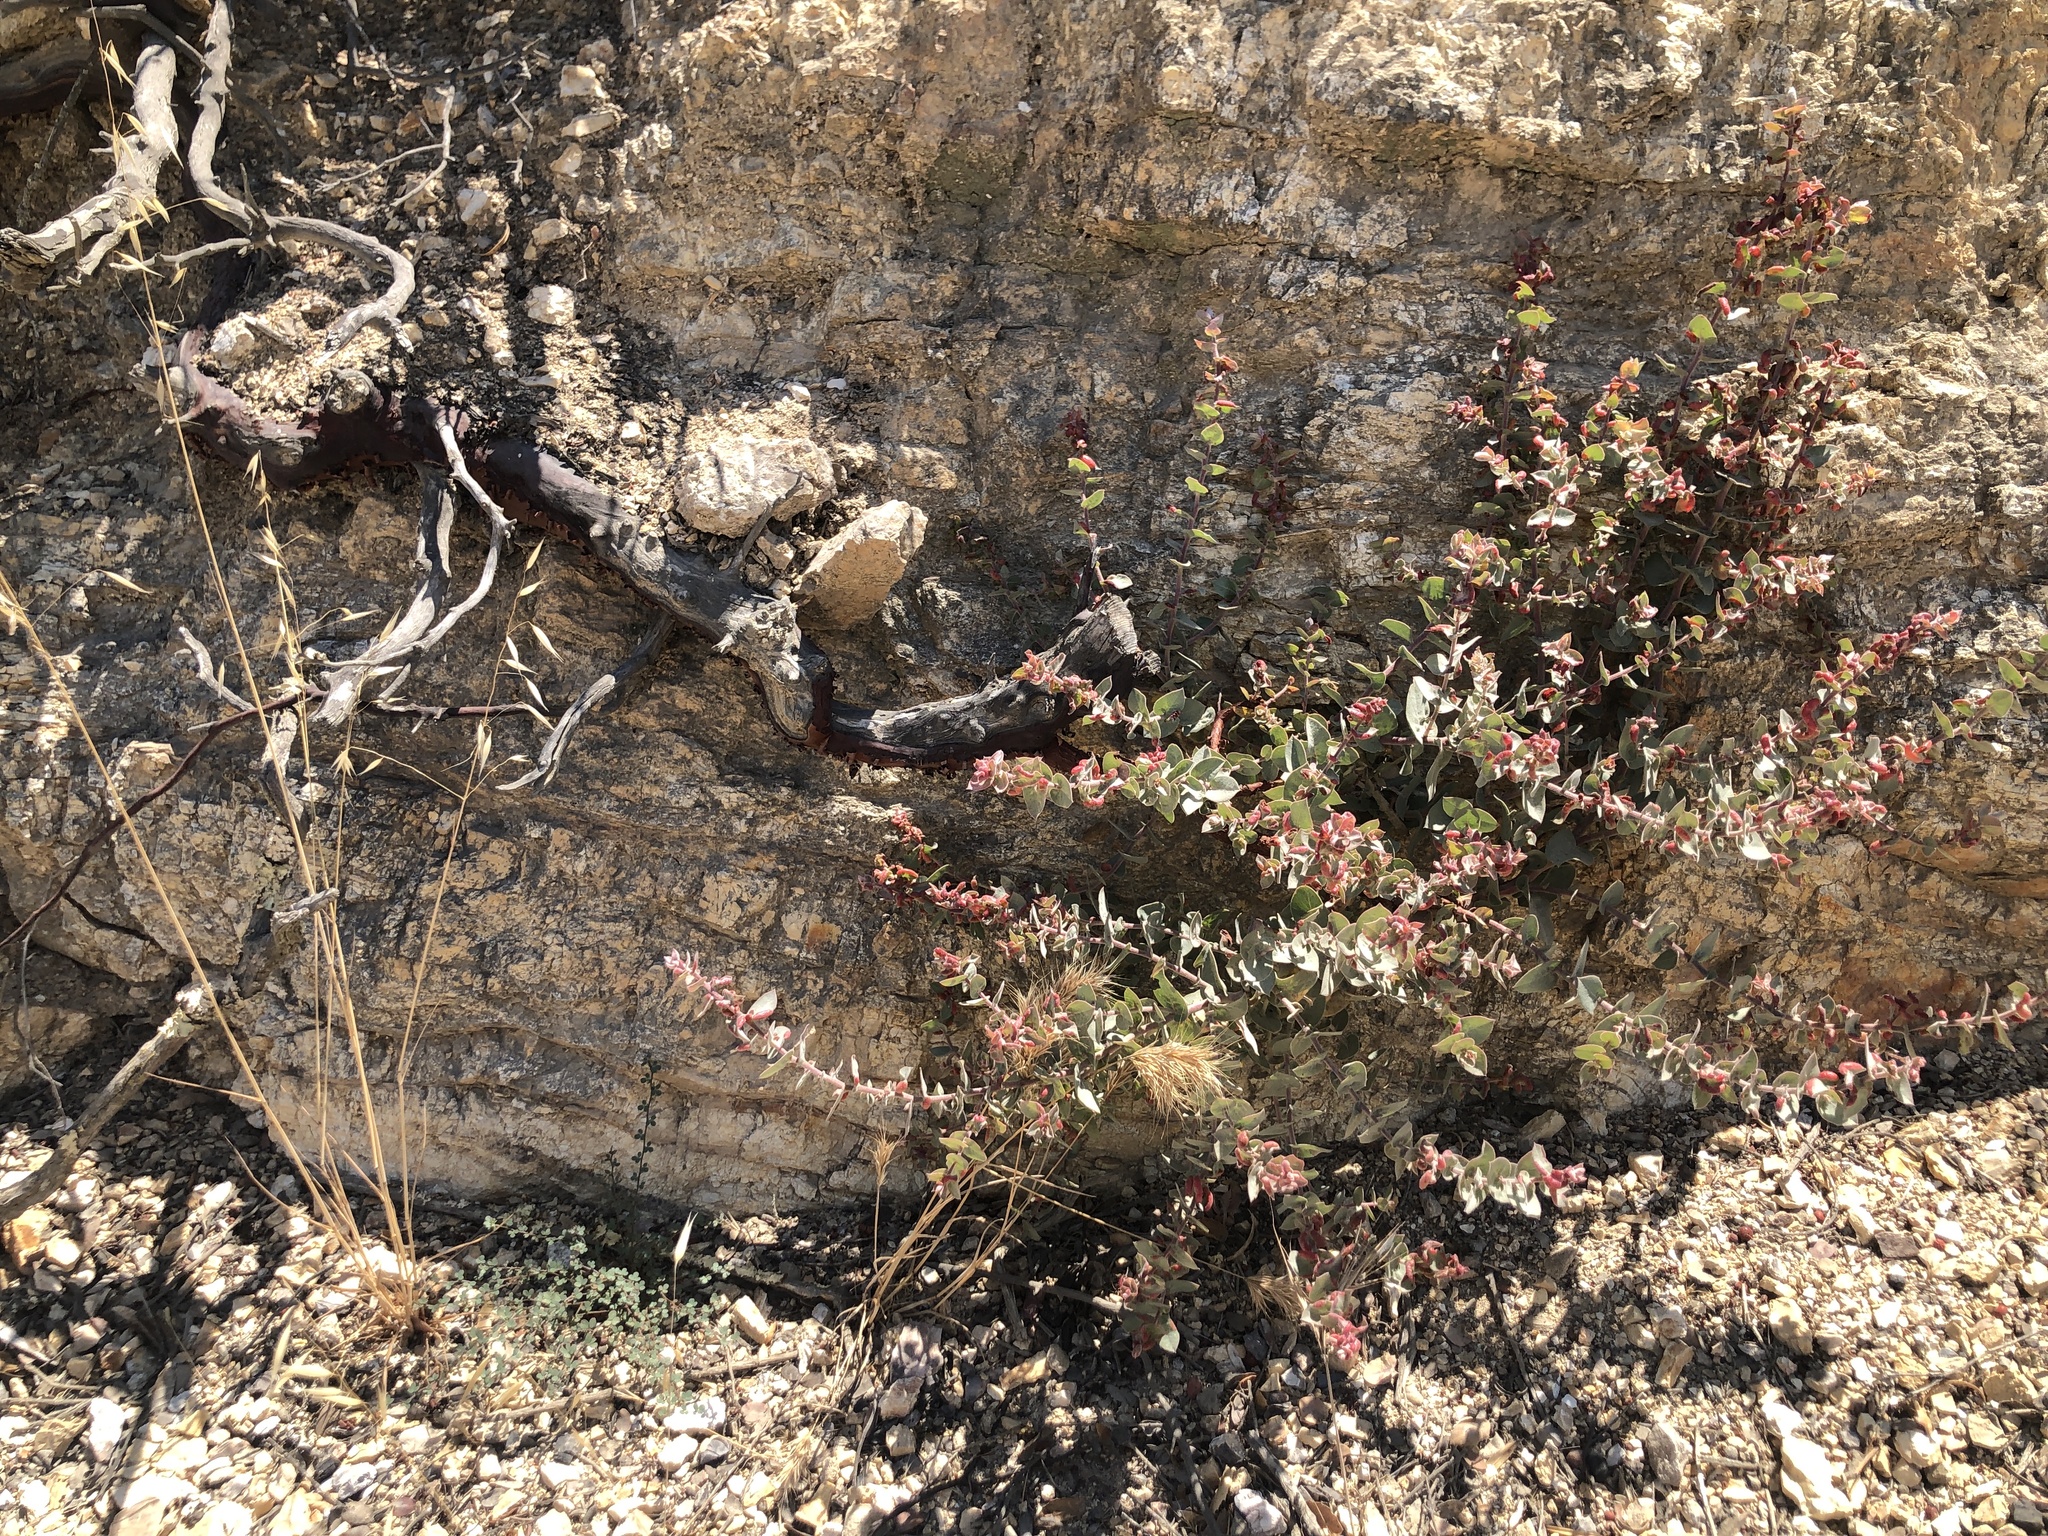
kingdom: Plantae
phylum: Tracheophyta
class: Magnoliopsida
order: Ericales
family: Ericaceae
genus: Arctostaphylos
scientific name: Arctostaphylos luciana
